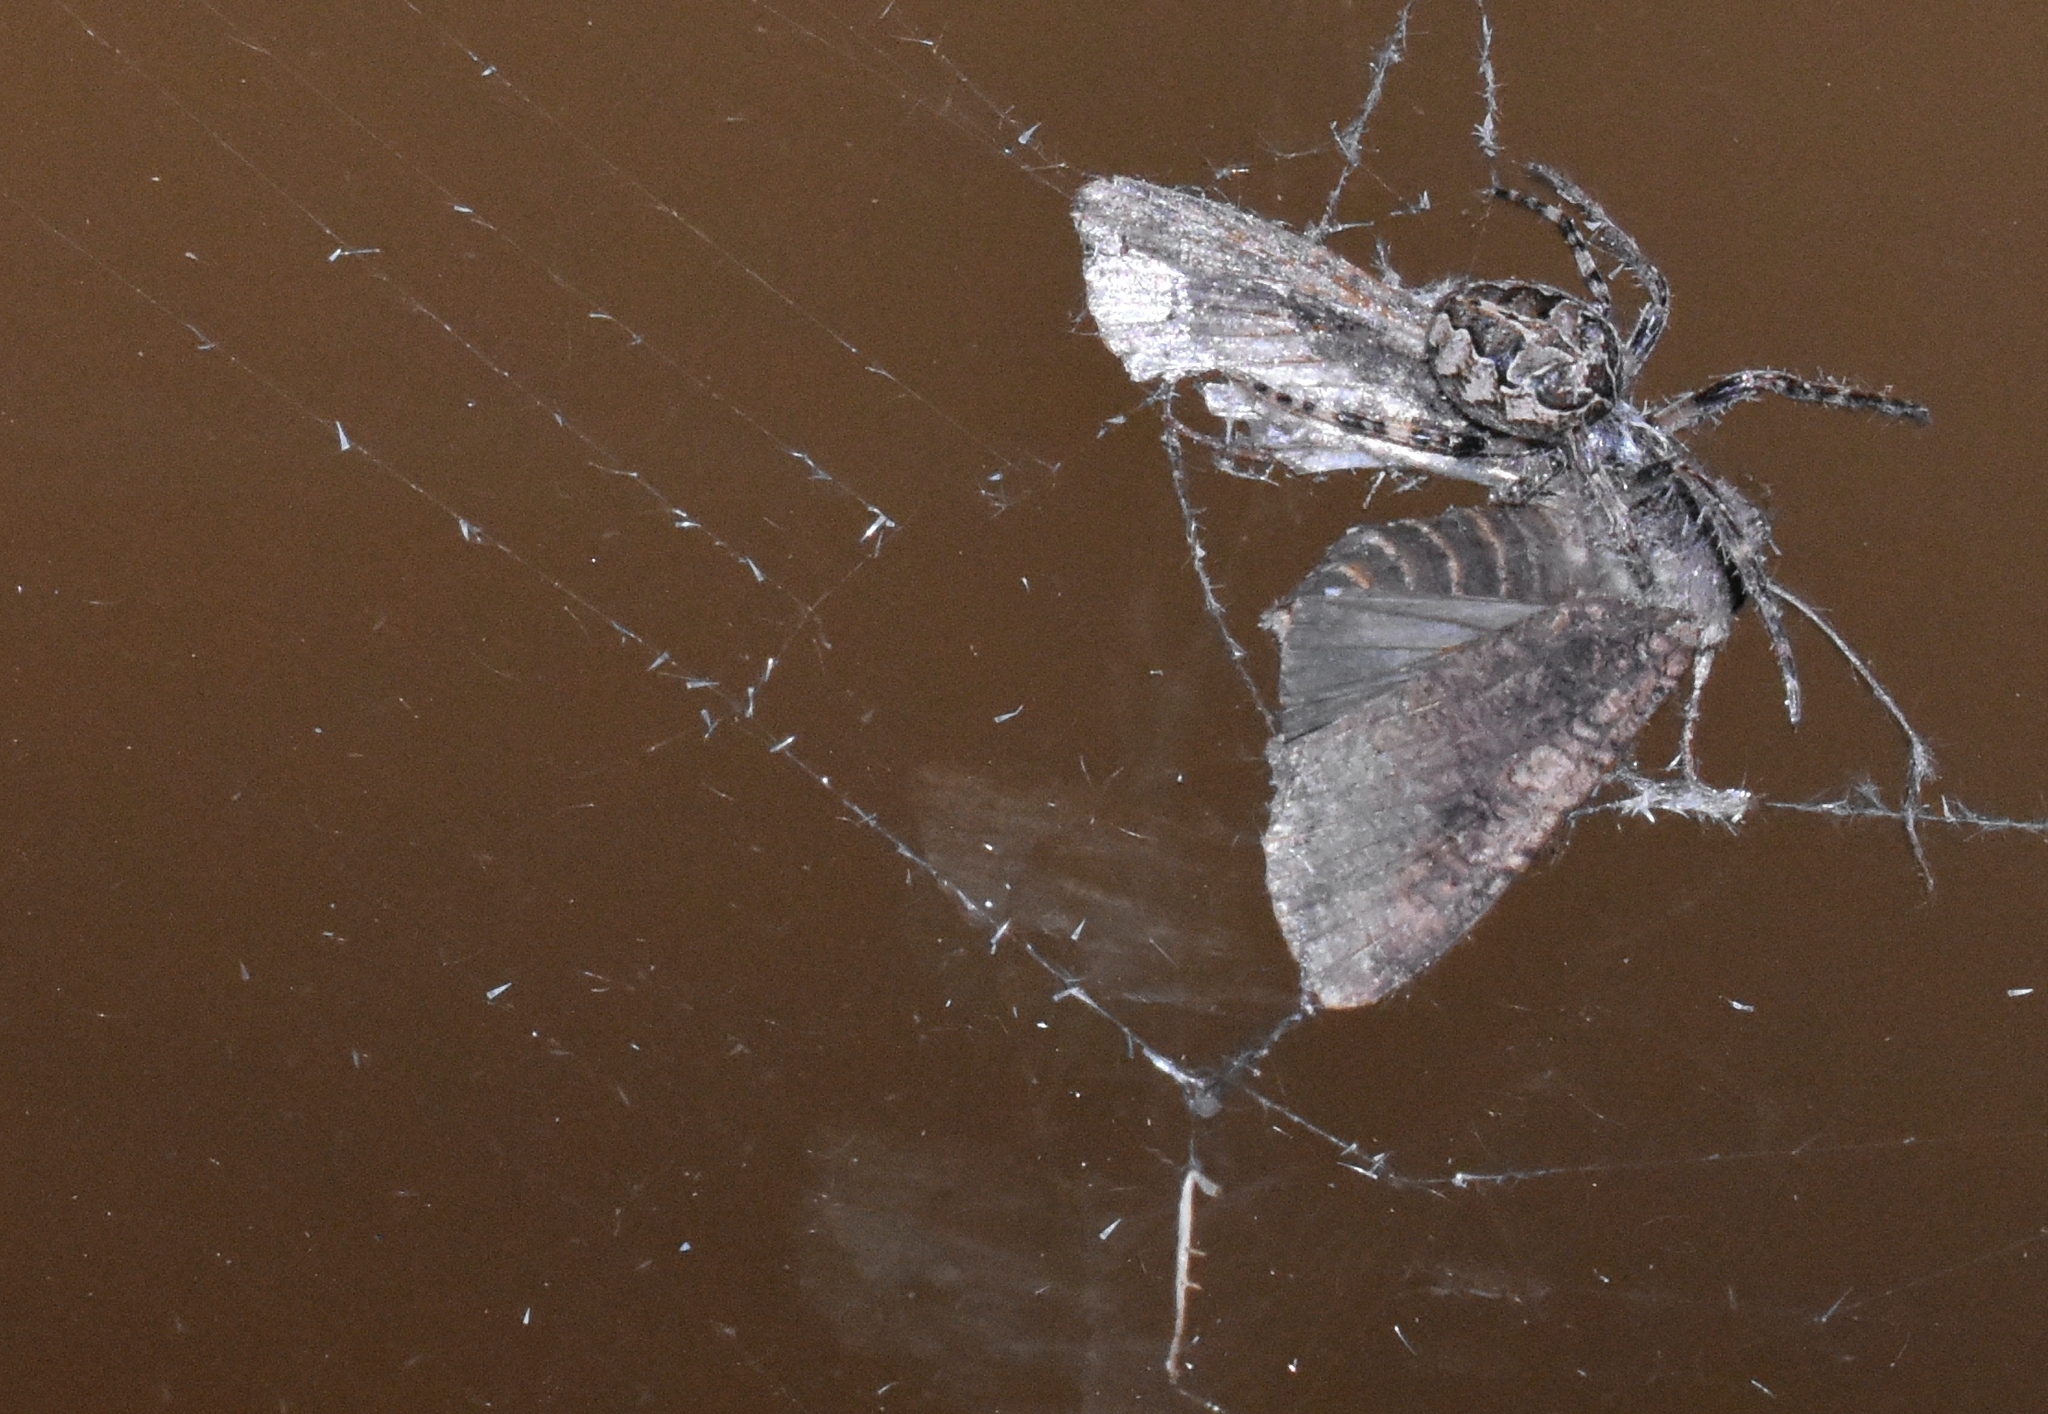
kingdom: Animalia
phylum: Arthropoda
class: Arachnida
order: Araneae
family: Araneidae
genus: Larinioides
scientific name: Larinioides sclopetarius
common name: Bridge orbweaver
